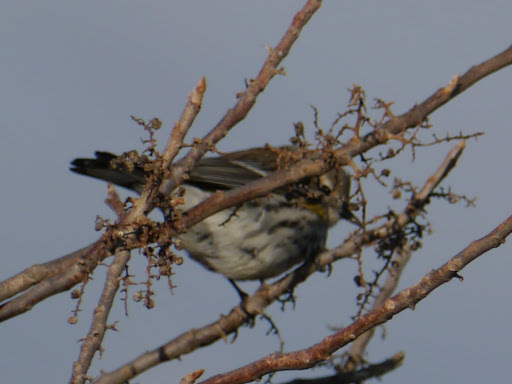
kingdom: Animalia
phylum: Chordata
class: Aves
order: Passeriformes
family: Parulidae
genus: Setophaga
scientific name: Setophaga coronata
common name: Myrtle warbler
